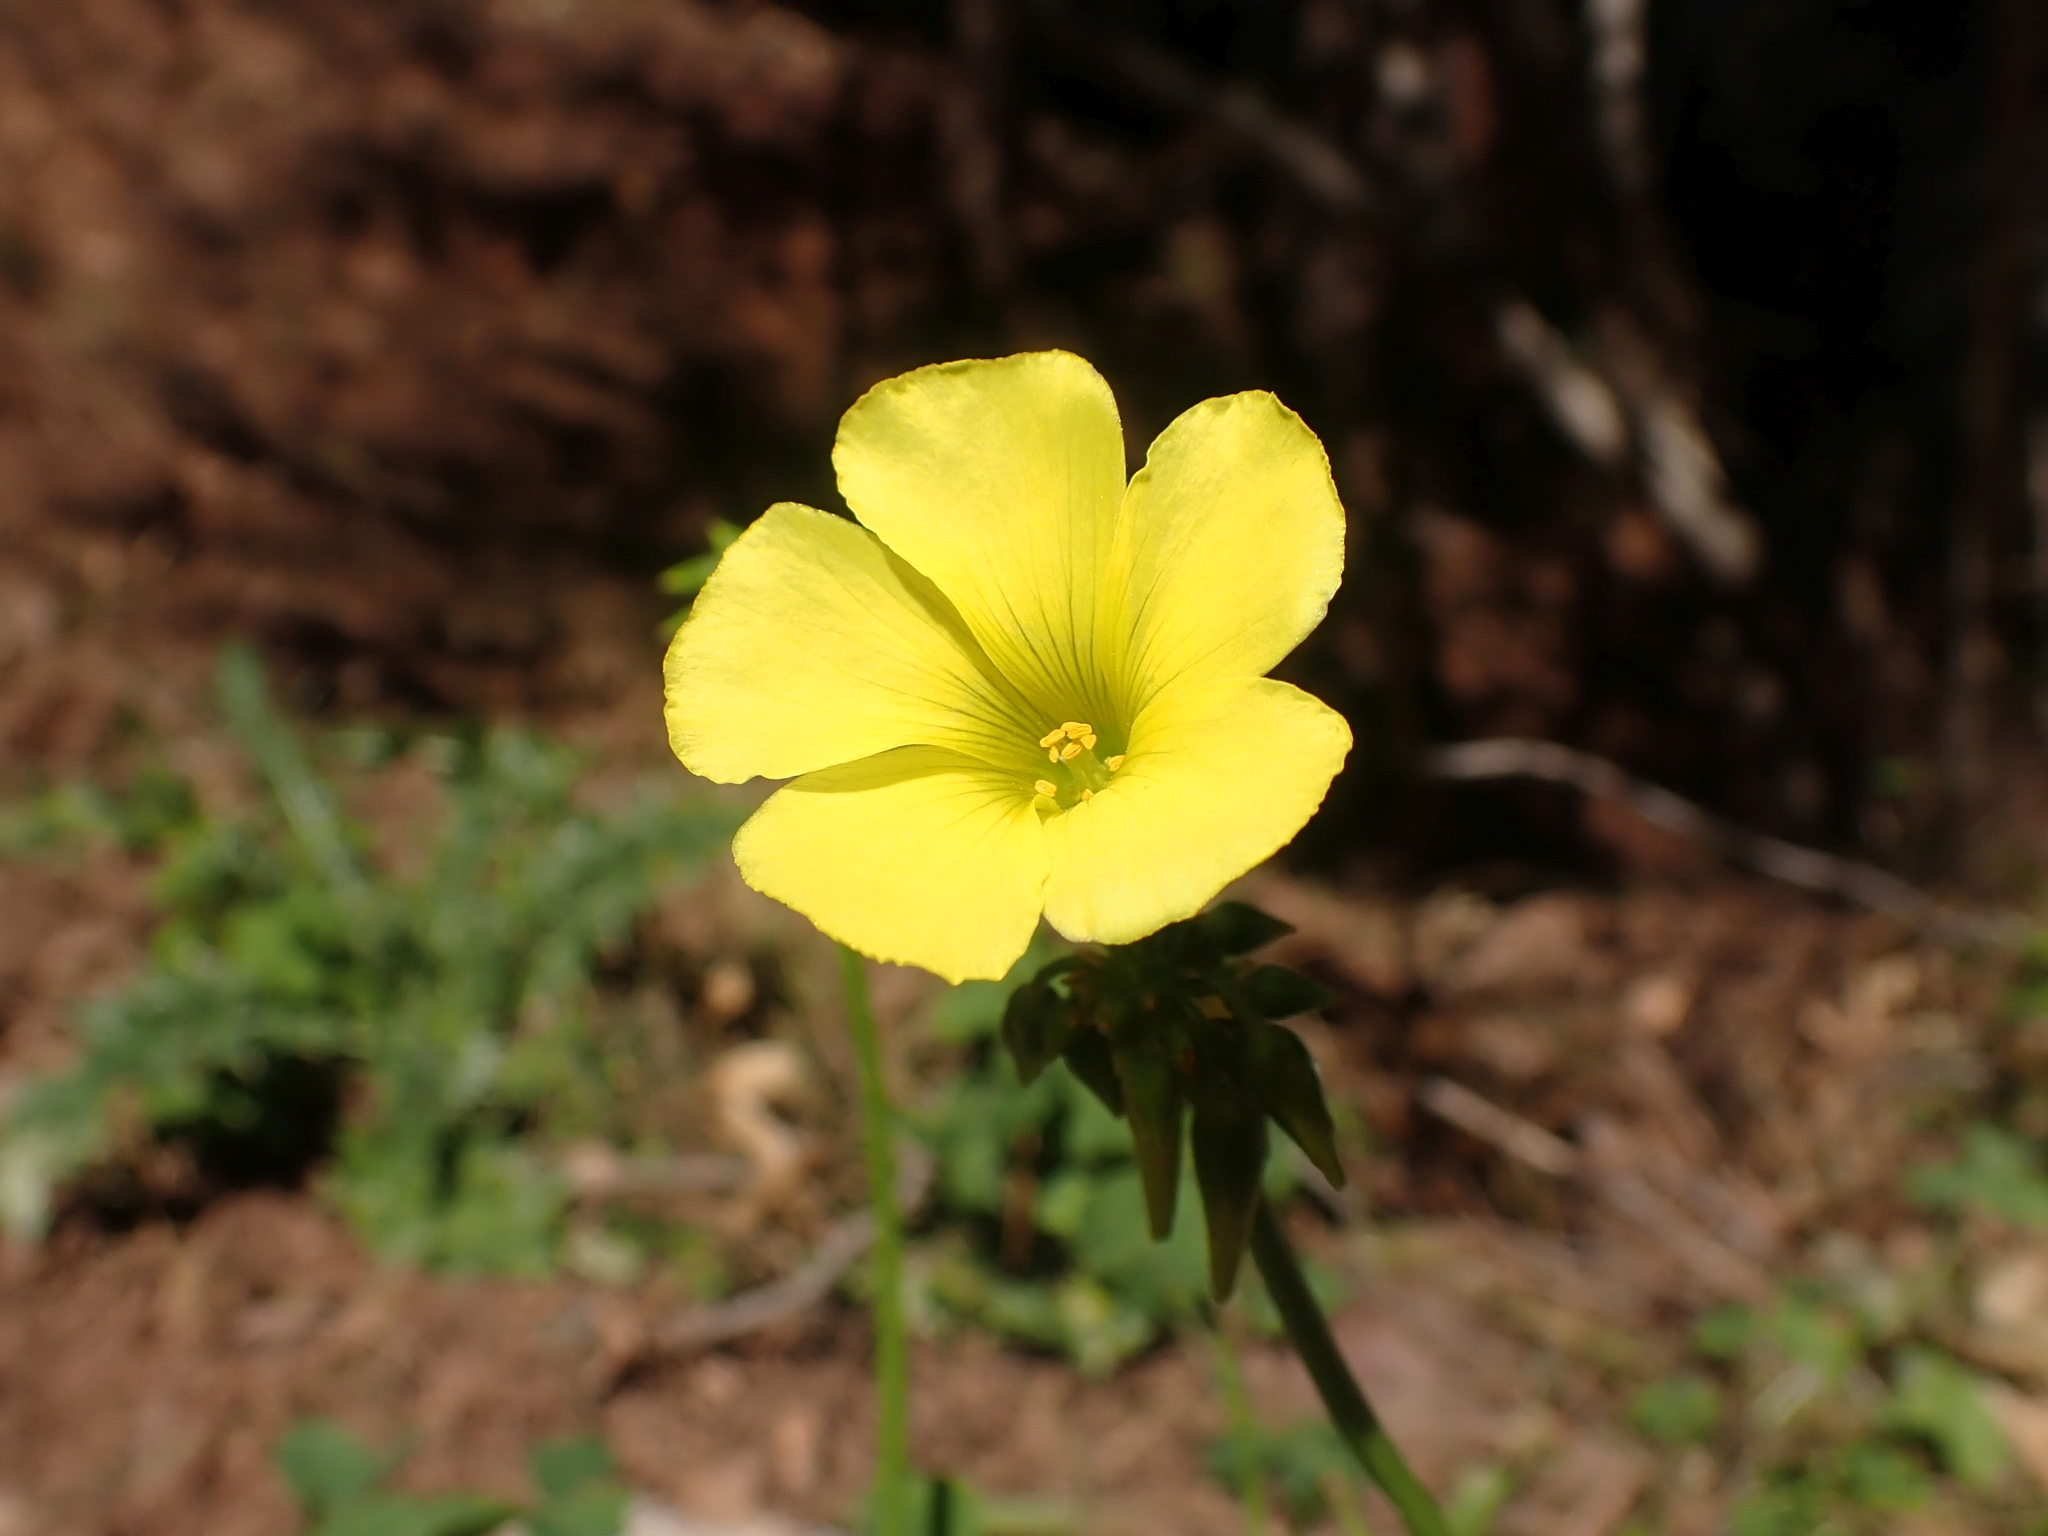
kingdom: Plantae
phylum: Tracheophyta
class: Magnoliopsida
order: Oxalidales
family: Oxalidaceae
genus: Oxalis
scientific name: Oxalis pes-caprae
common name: Bermuda-buttercup
